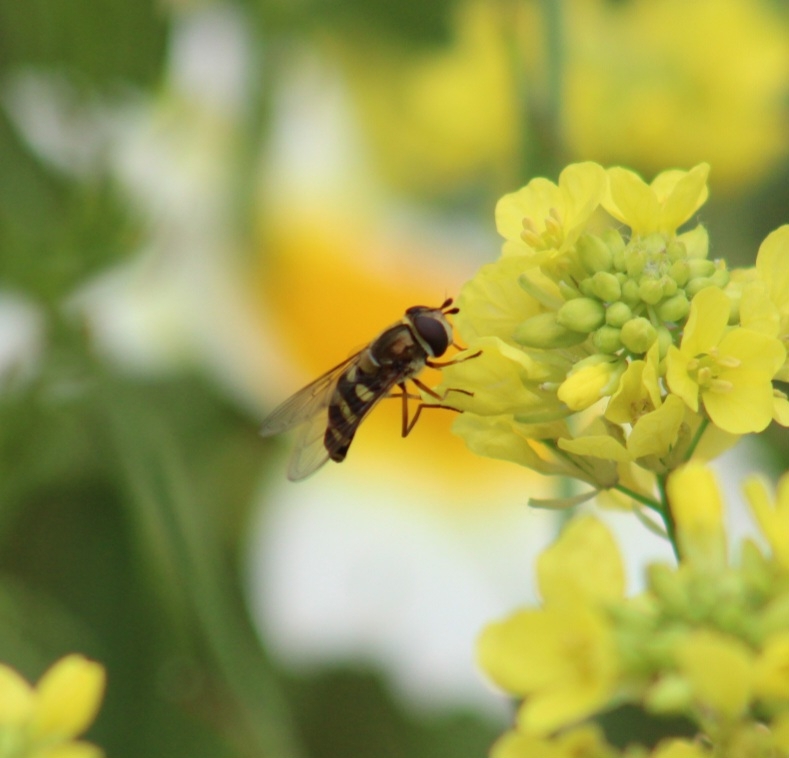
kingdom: Animalia
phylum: Arthropoda
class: Insecta
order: Diptera
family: Syrphidae
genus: Eupeodes
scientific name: Eupeodes fumipennis
